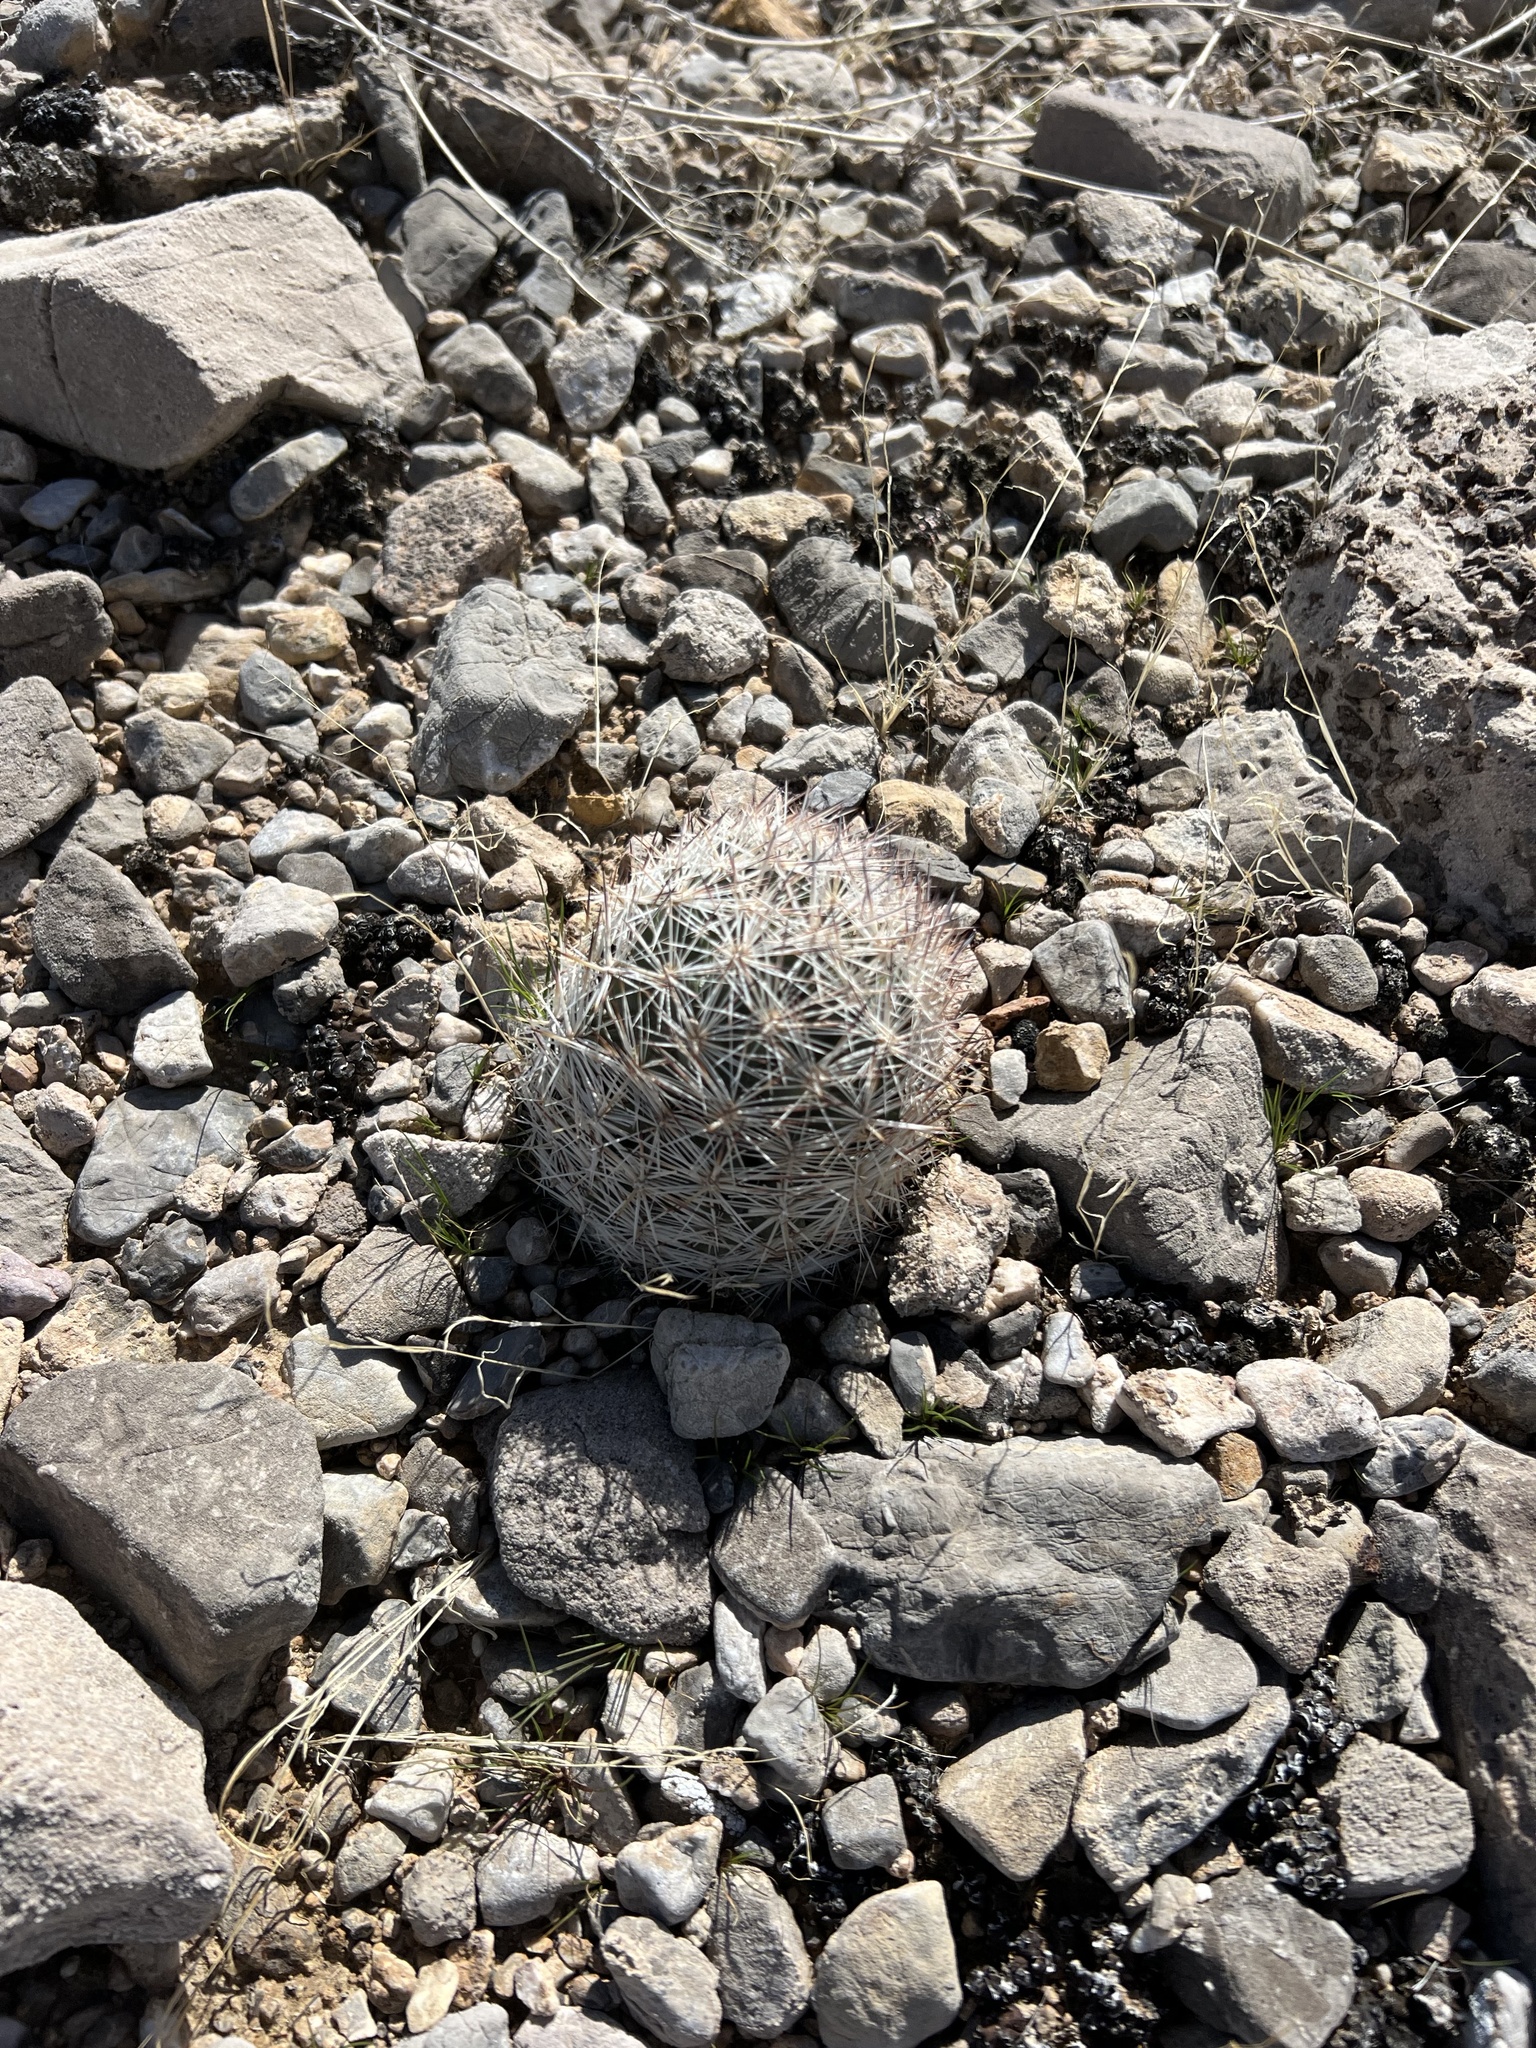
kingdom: Plantae
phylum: Tracheophyta
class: Magnoliopsida
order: Caryophyllales
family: Cactaceae
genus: Pelecyphora
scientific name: Pelecyphora dasyacantha
